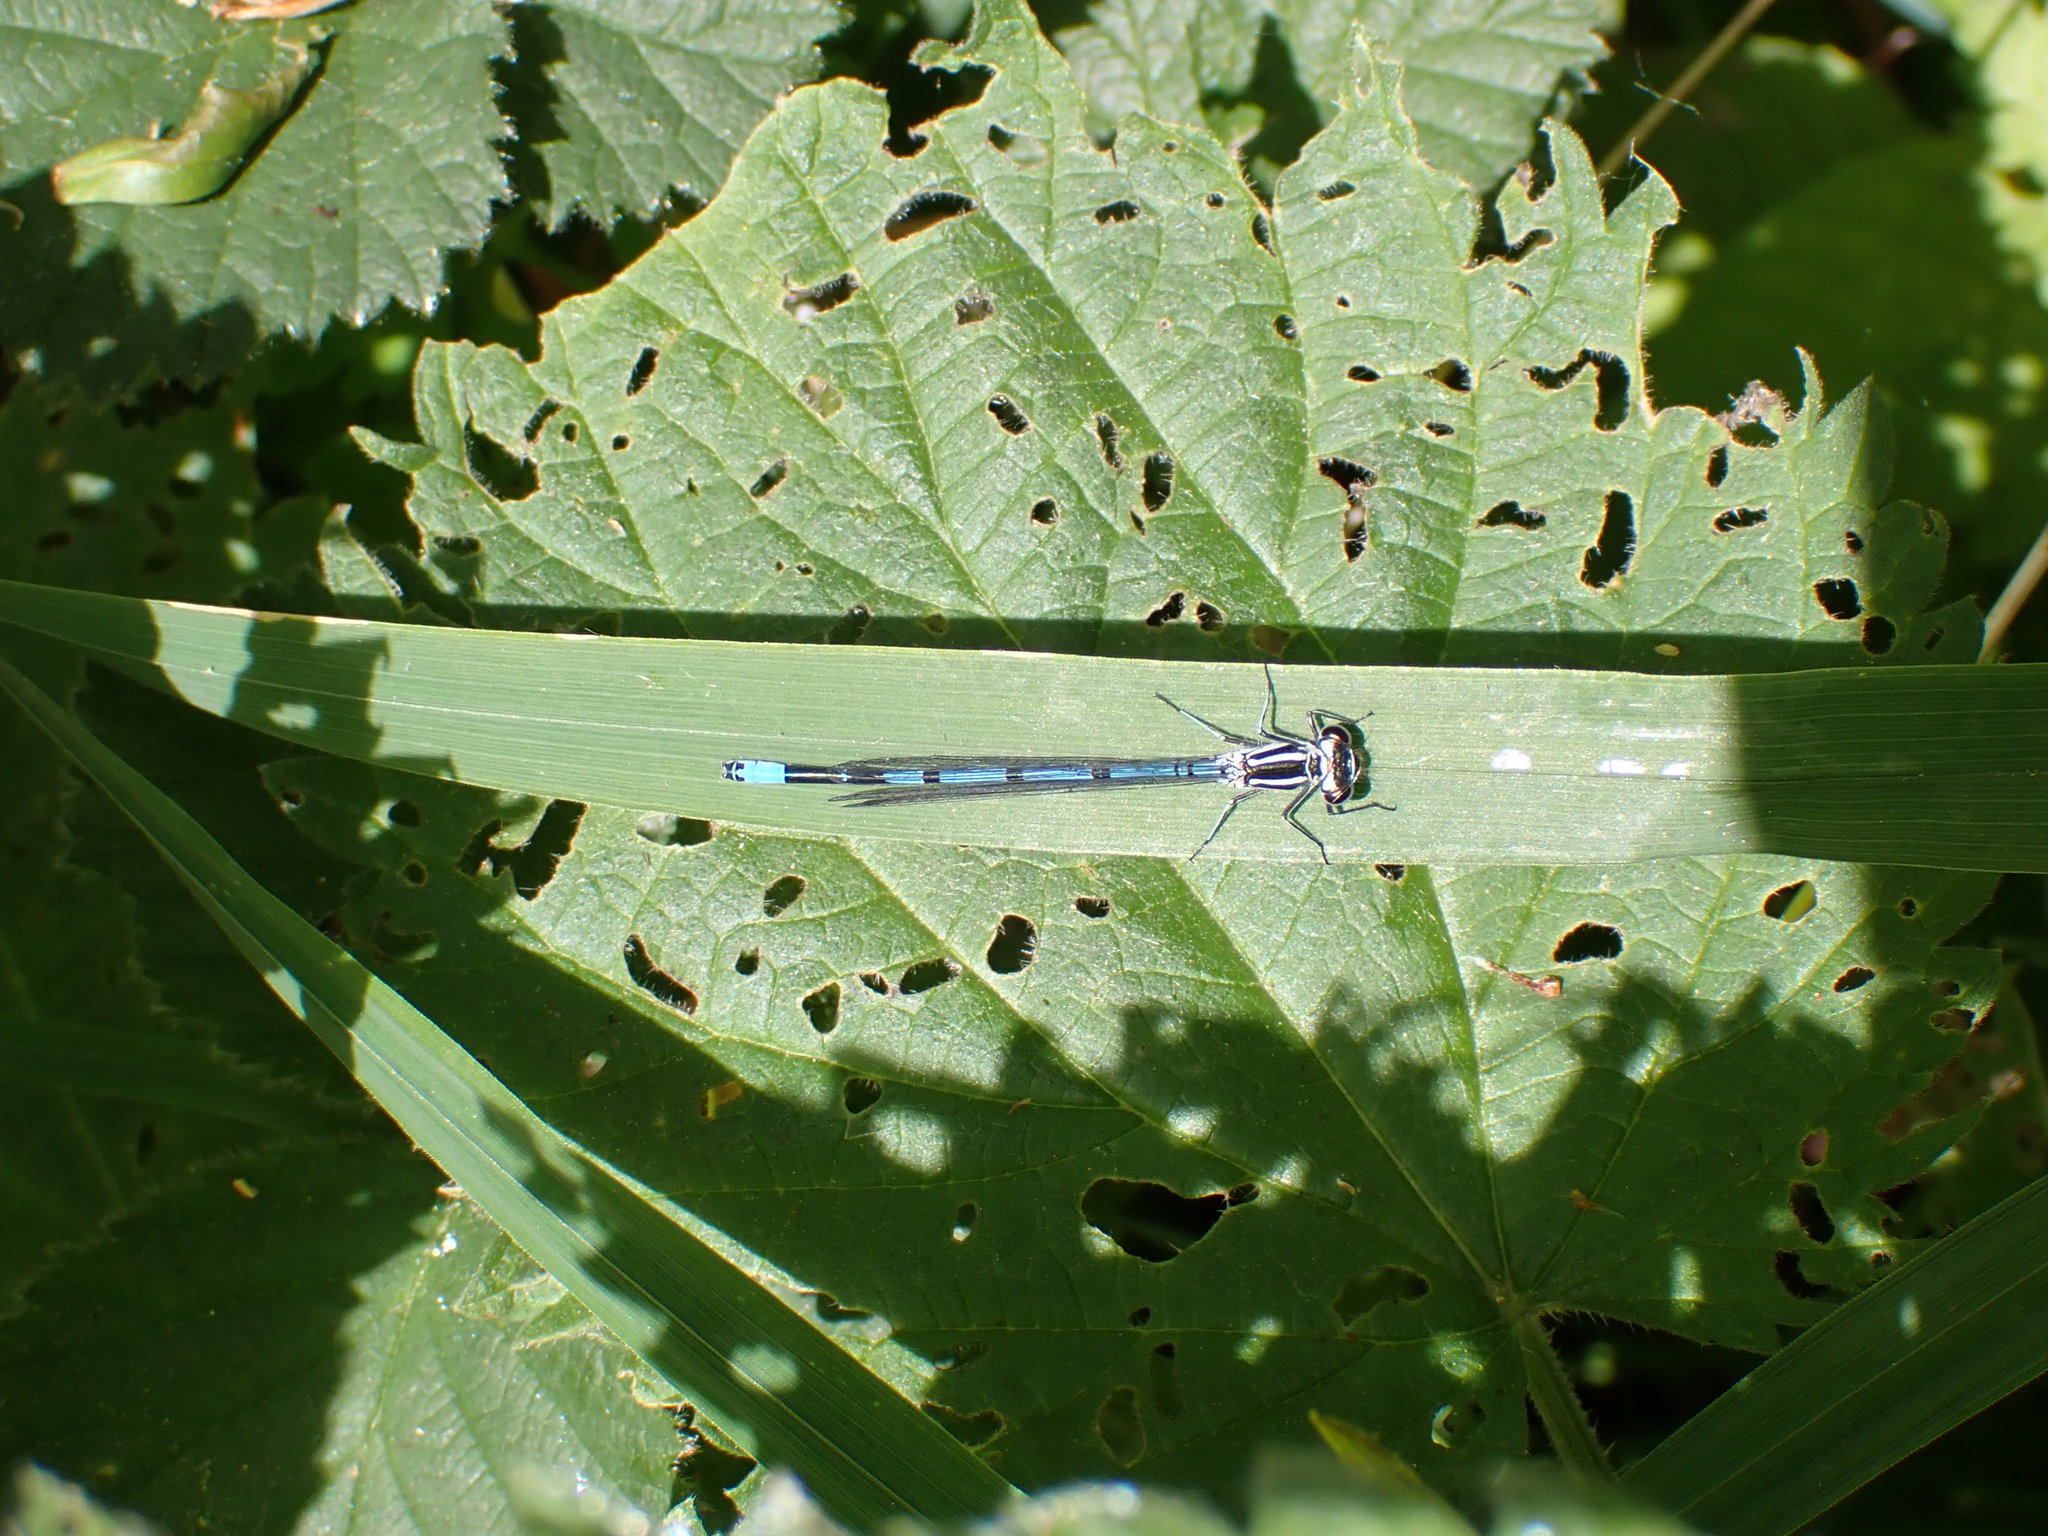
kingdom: Animalia
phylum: Arthropoda
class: Insecta
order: Odonata
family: Coenagrionidae
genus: Coenagrion
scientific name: Coenagrion puella
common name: Azure damselfly
